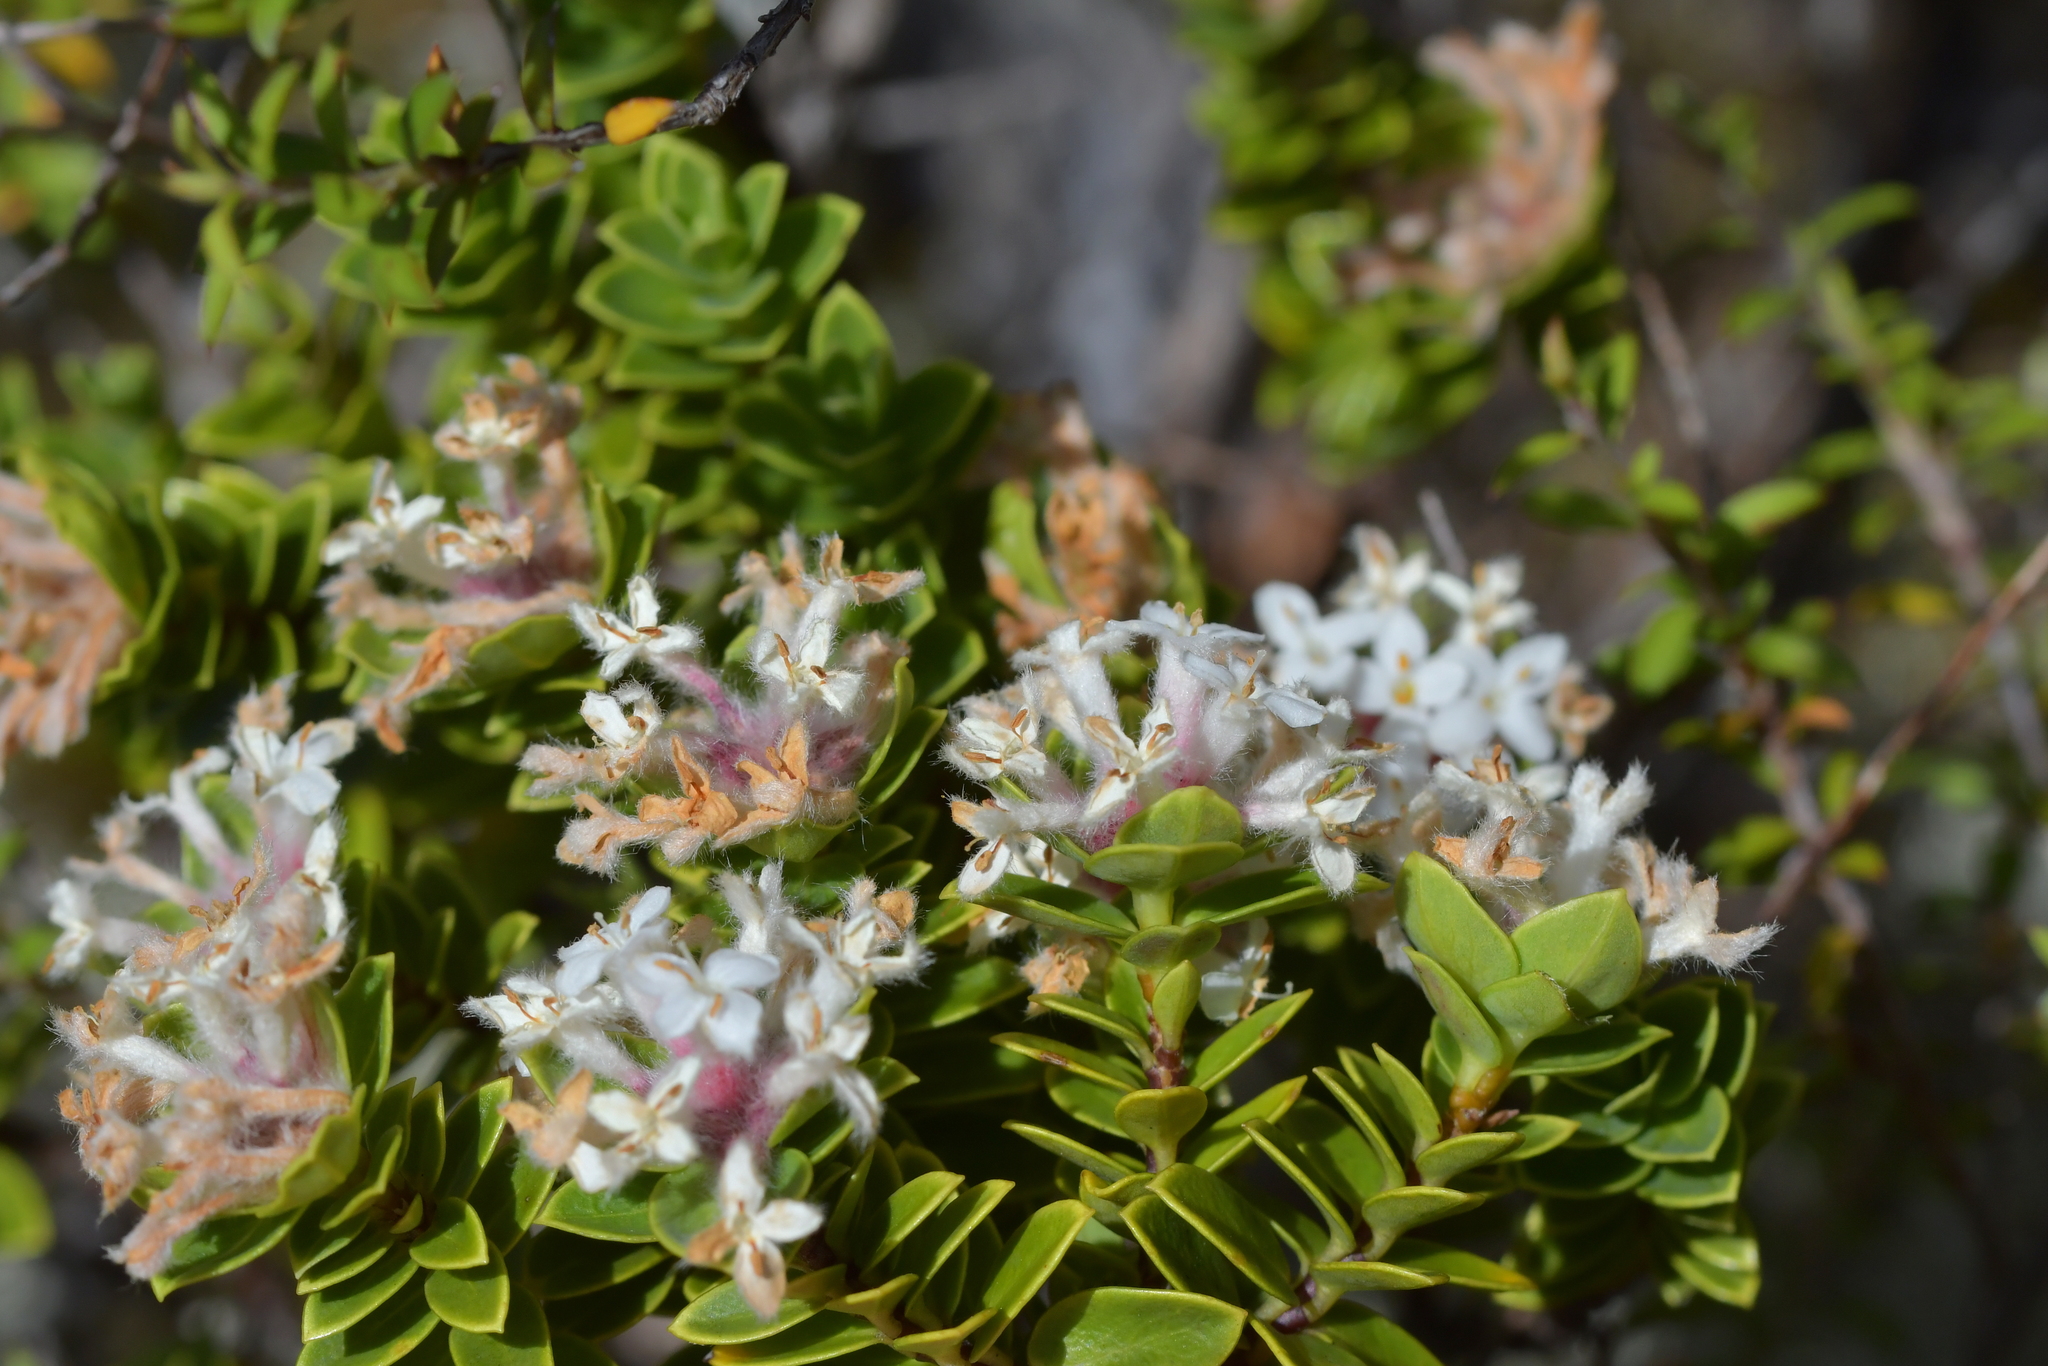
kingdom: Plantae
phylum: Tracheophyta
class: Magnoliopsida
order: Malvales
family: Thymelaeaceae
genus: Pimelea
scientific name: Pimelea gnidia
